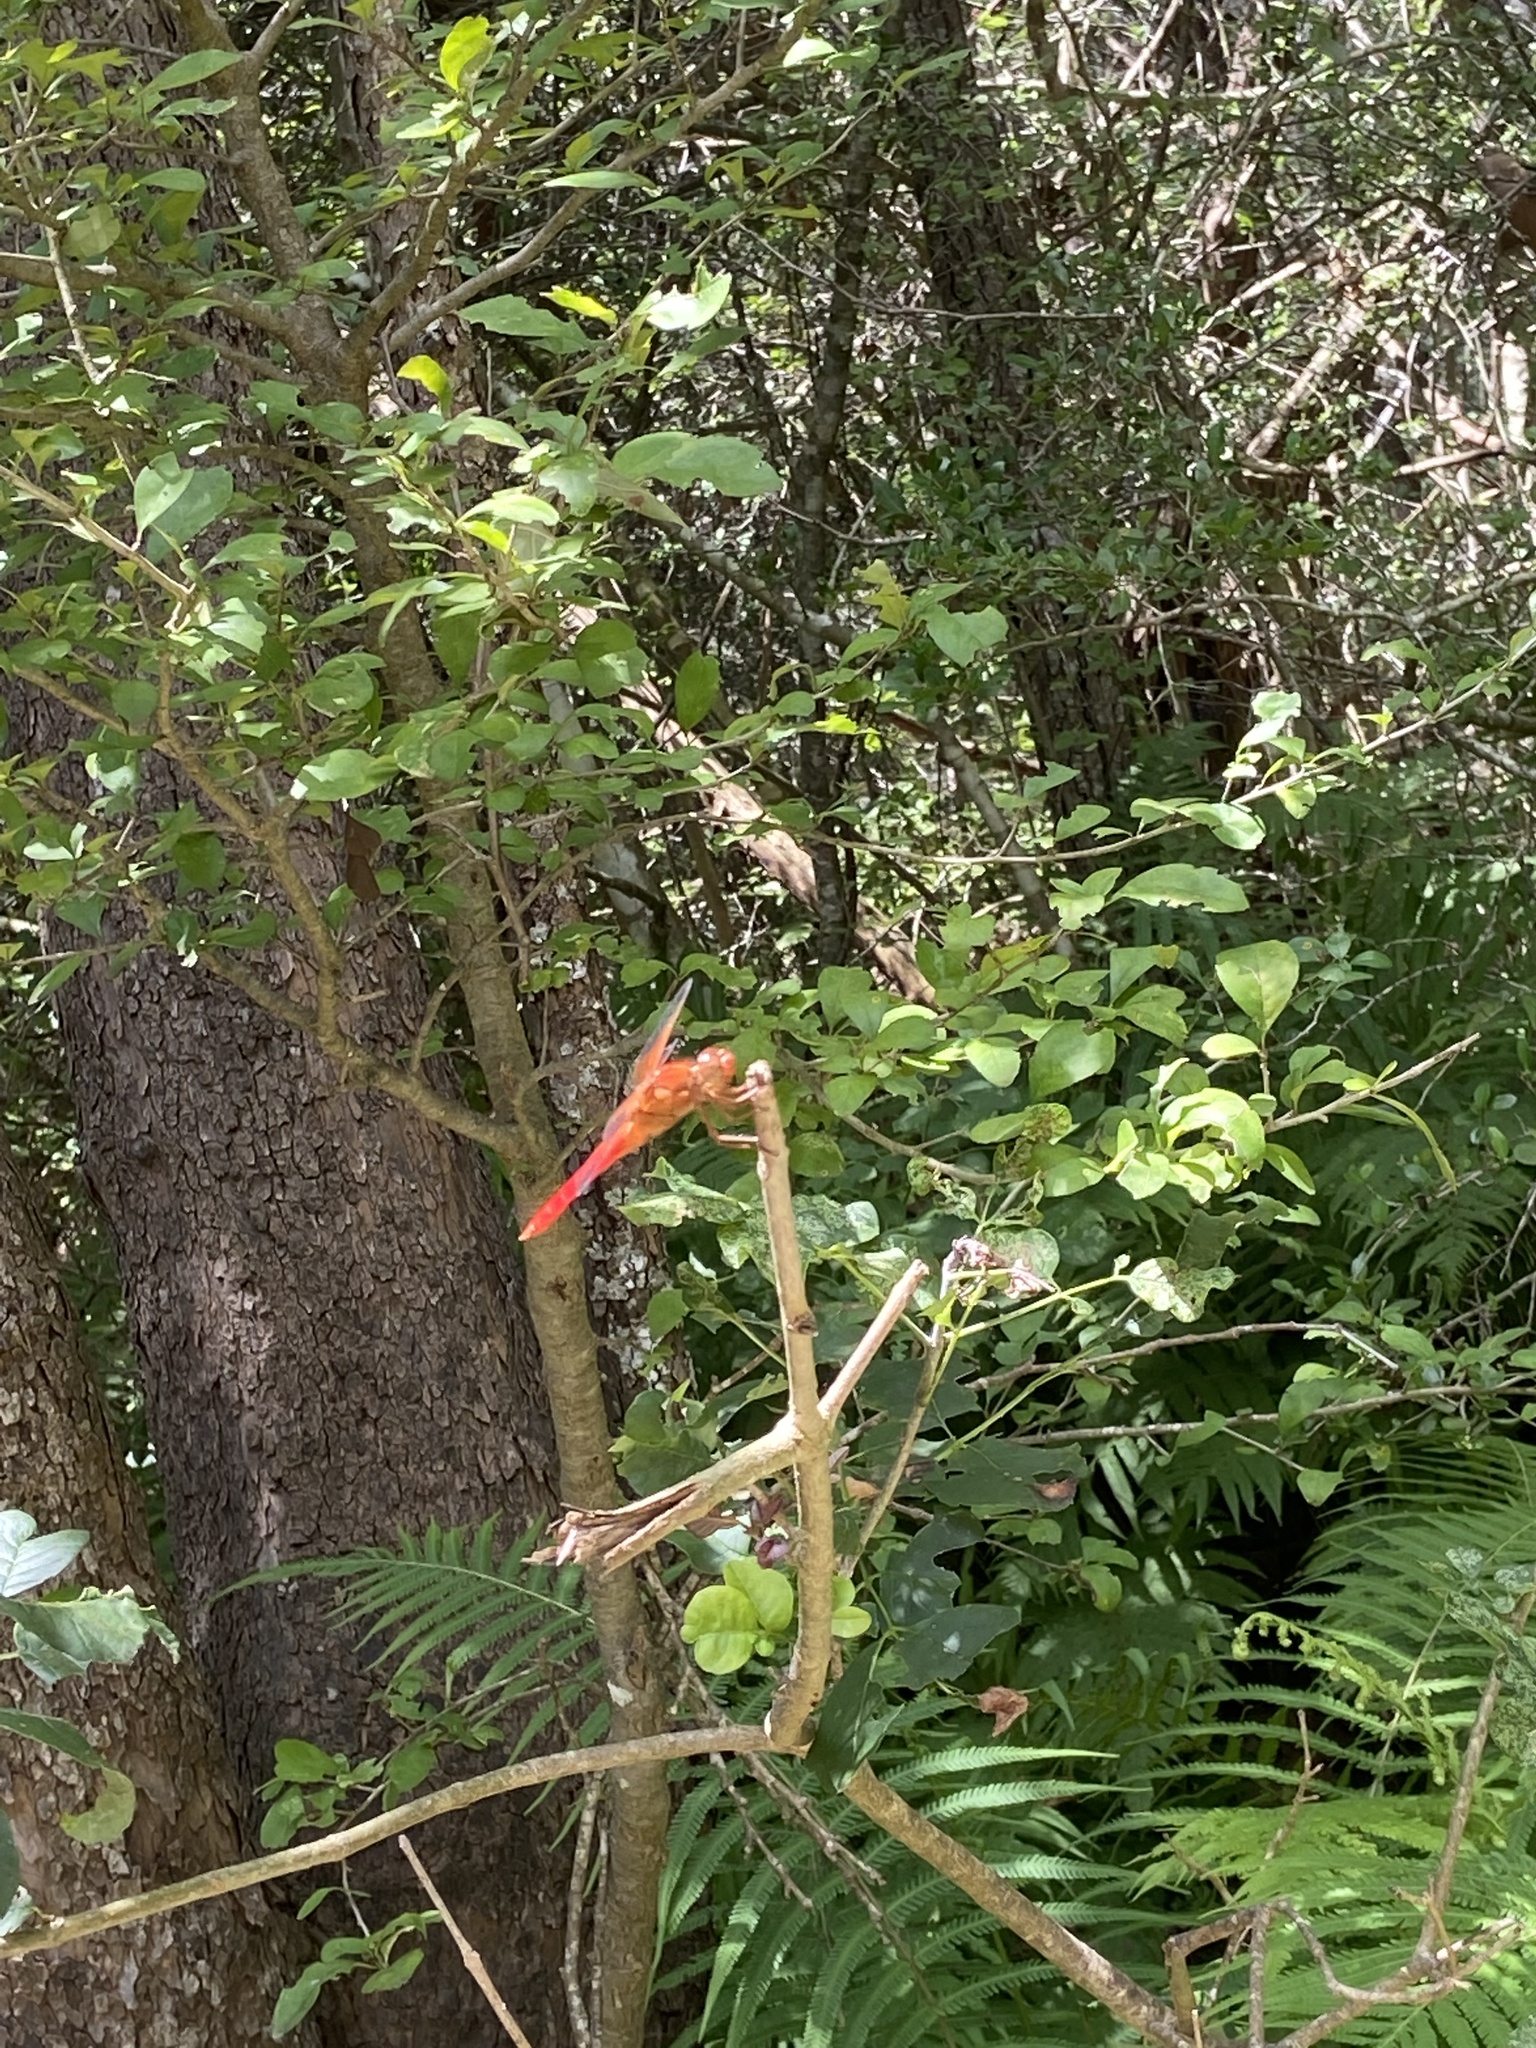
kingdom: Animalia
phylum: Arthropoda
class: Insecta
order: Odonata
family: Libellulidae
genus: Libellula
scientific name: Libellula croceipennis
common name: Neon skimmer
